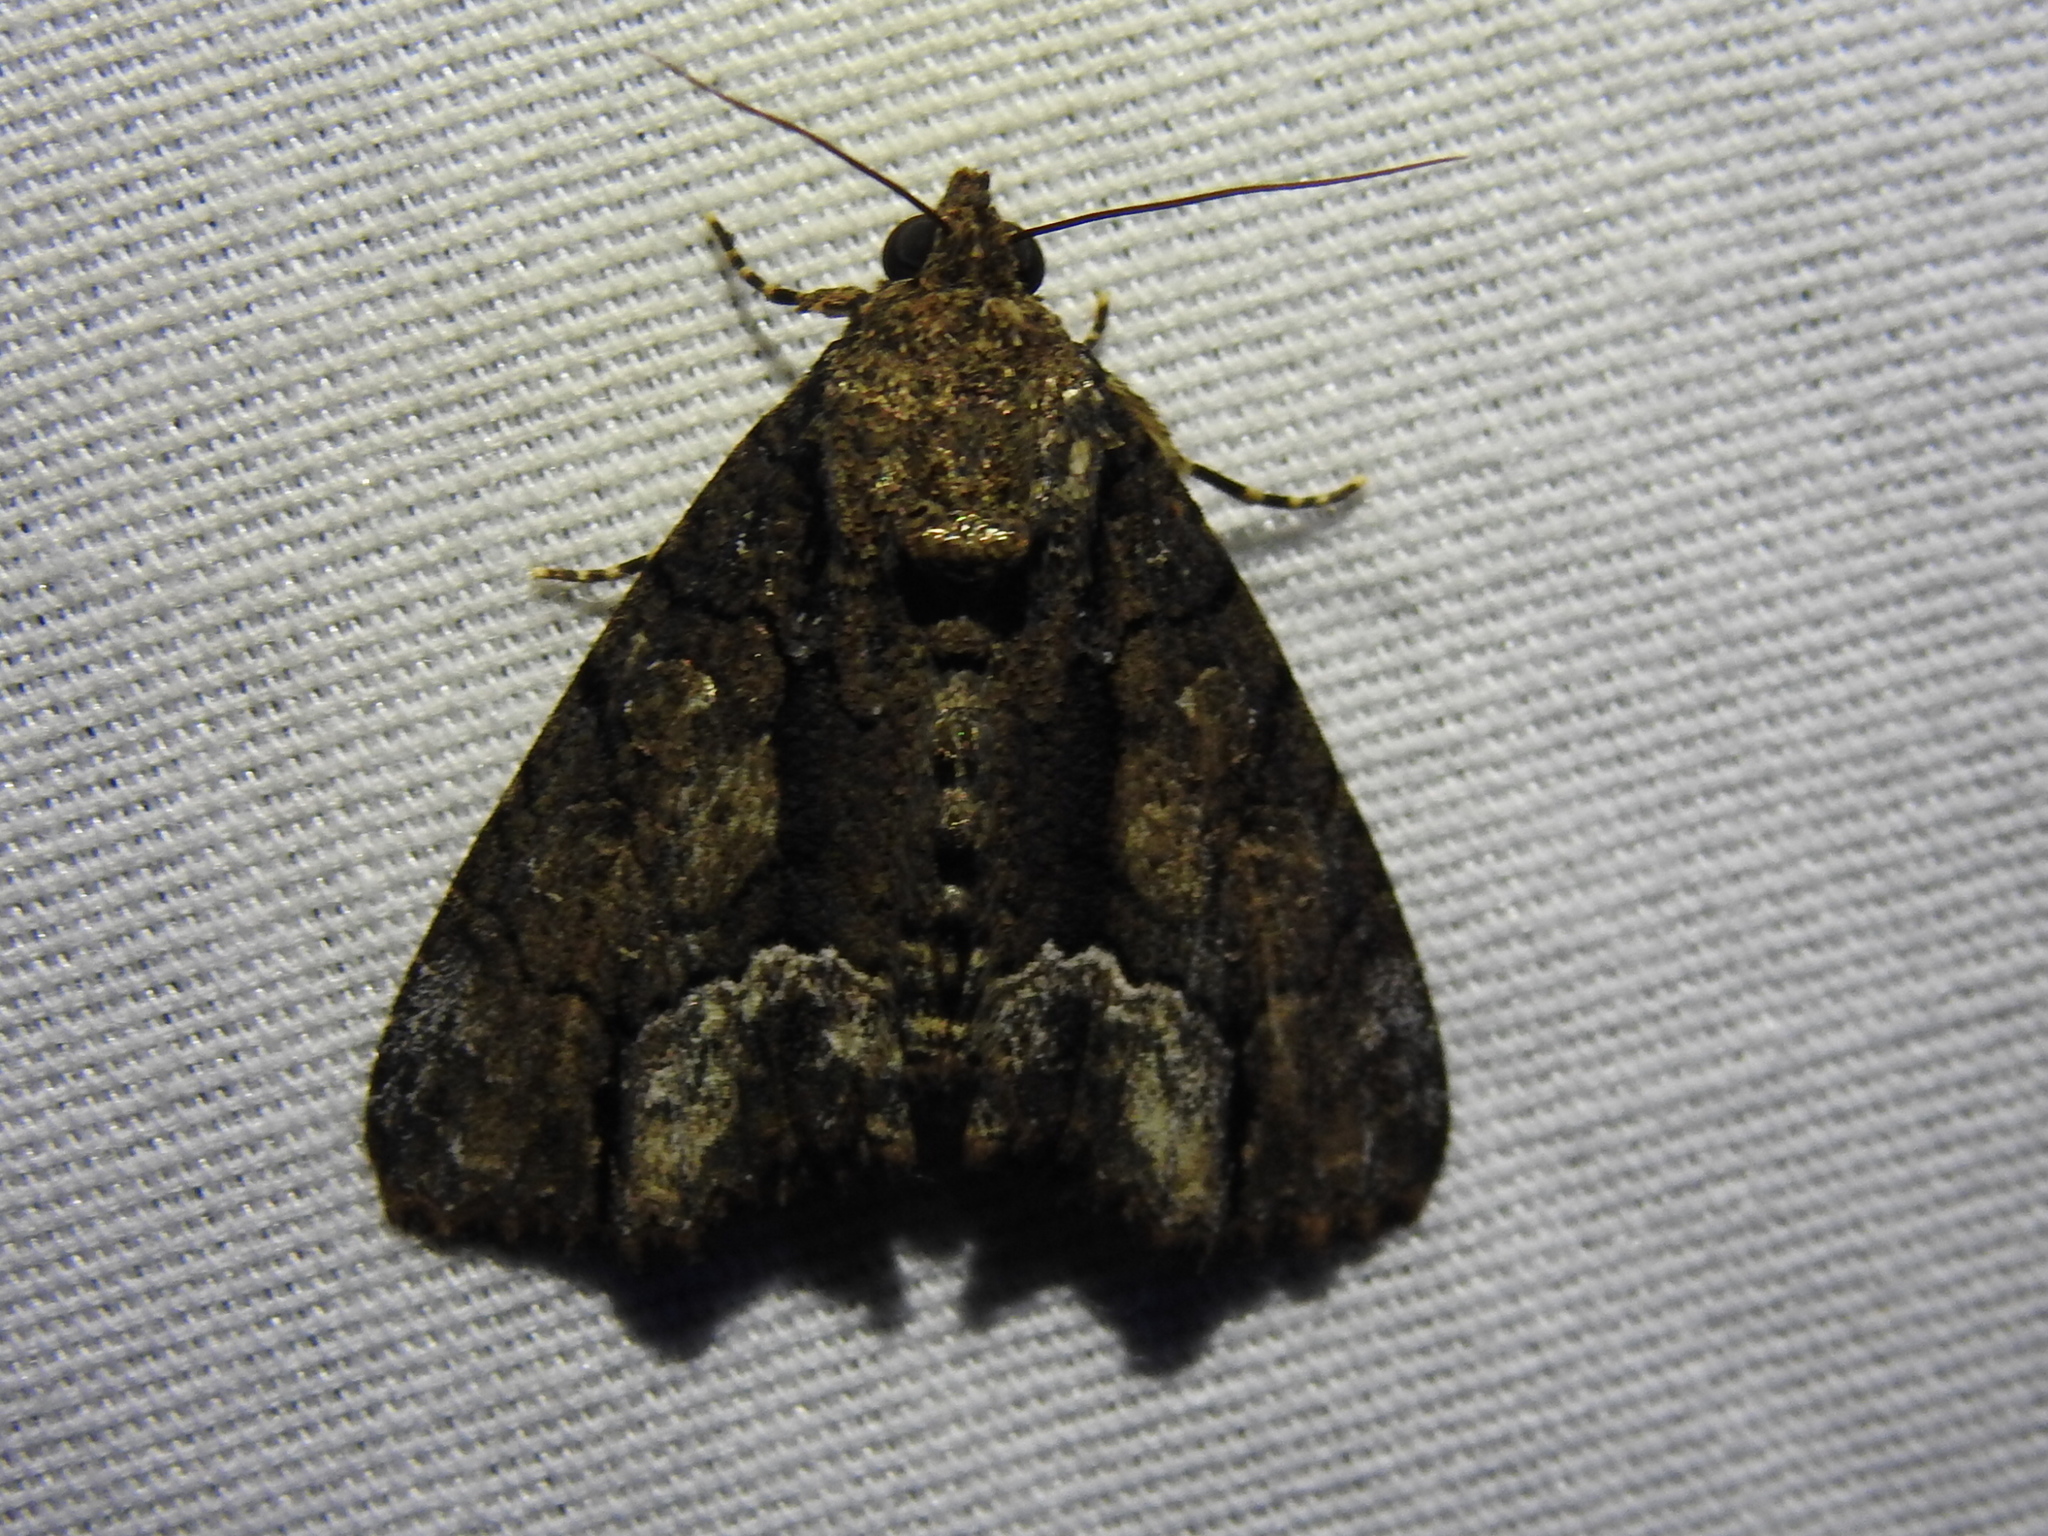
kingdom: Animalia
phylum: Arthropoda
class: Insecta
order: Lepidoptera
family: Noctuidae
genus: Cropia
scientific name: Cropia connecta
